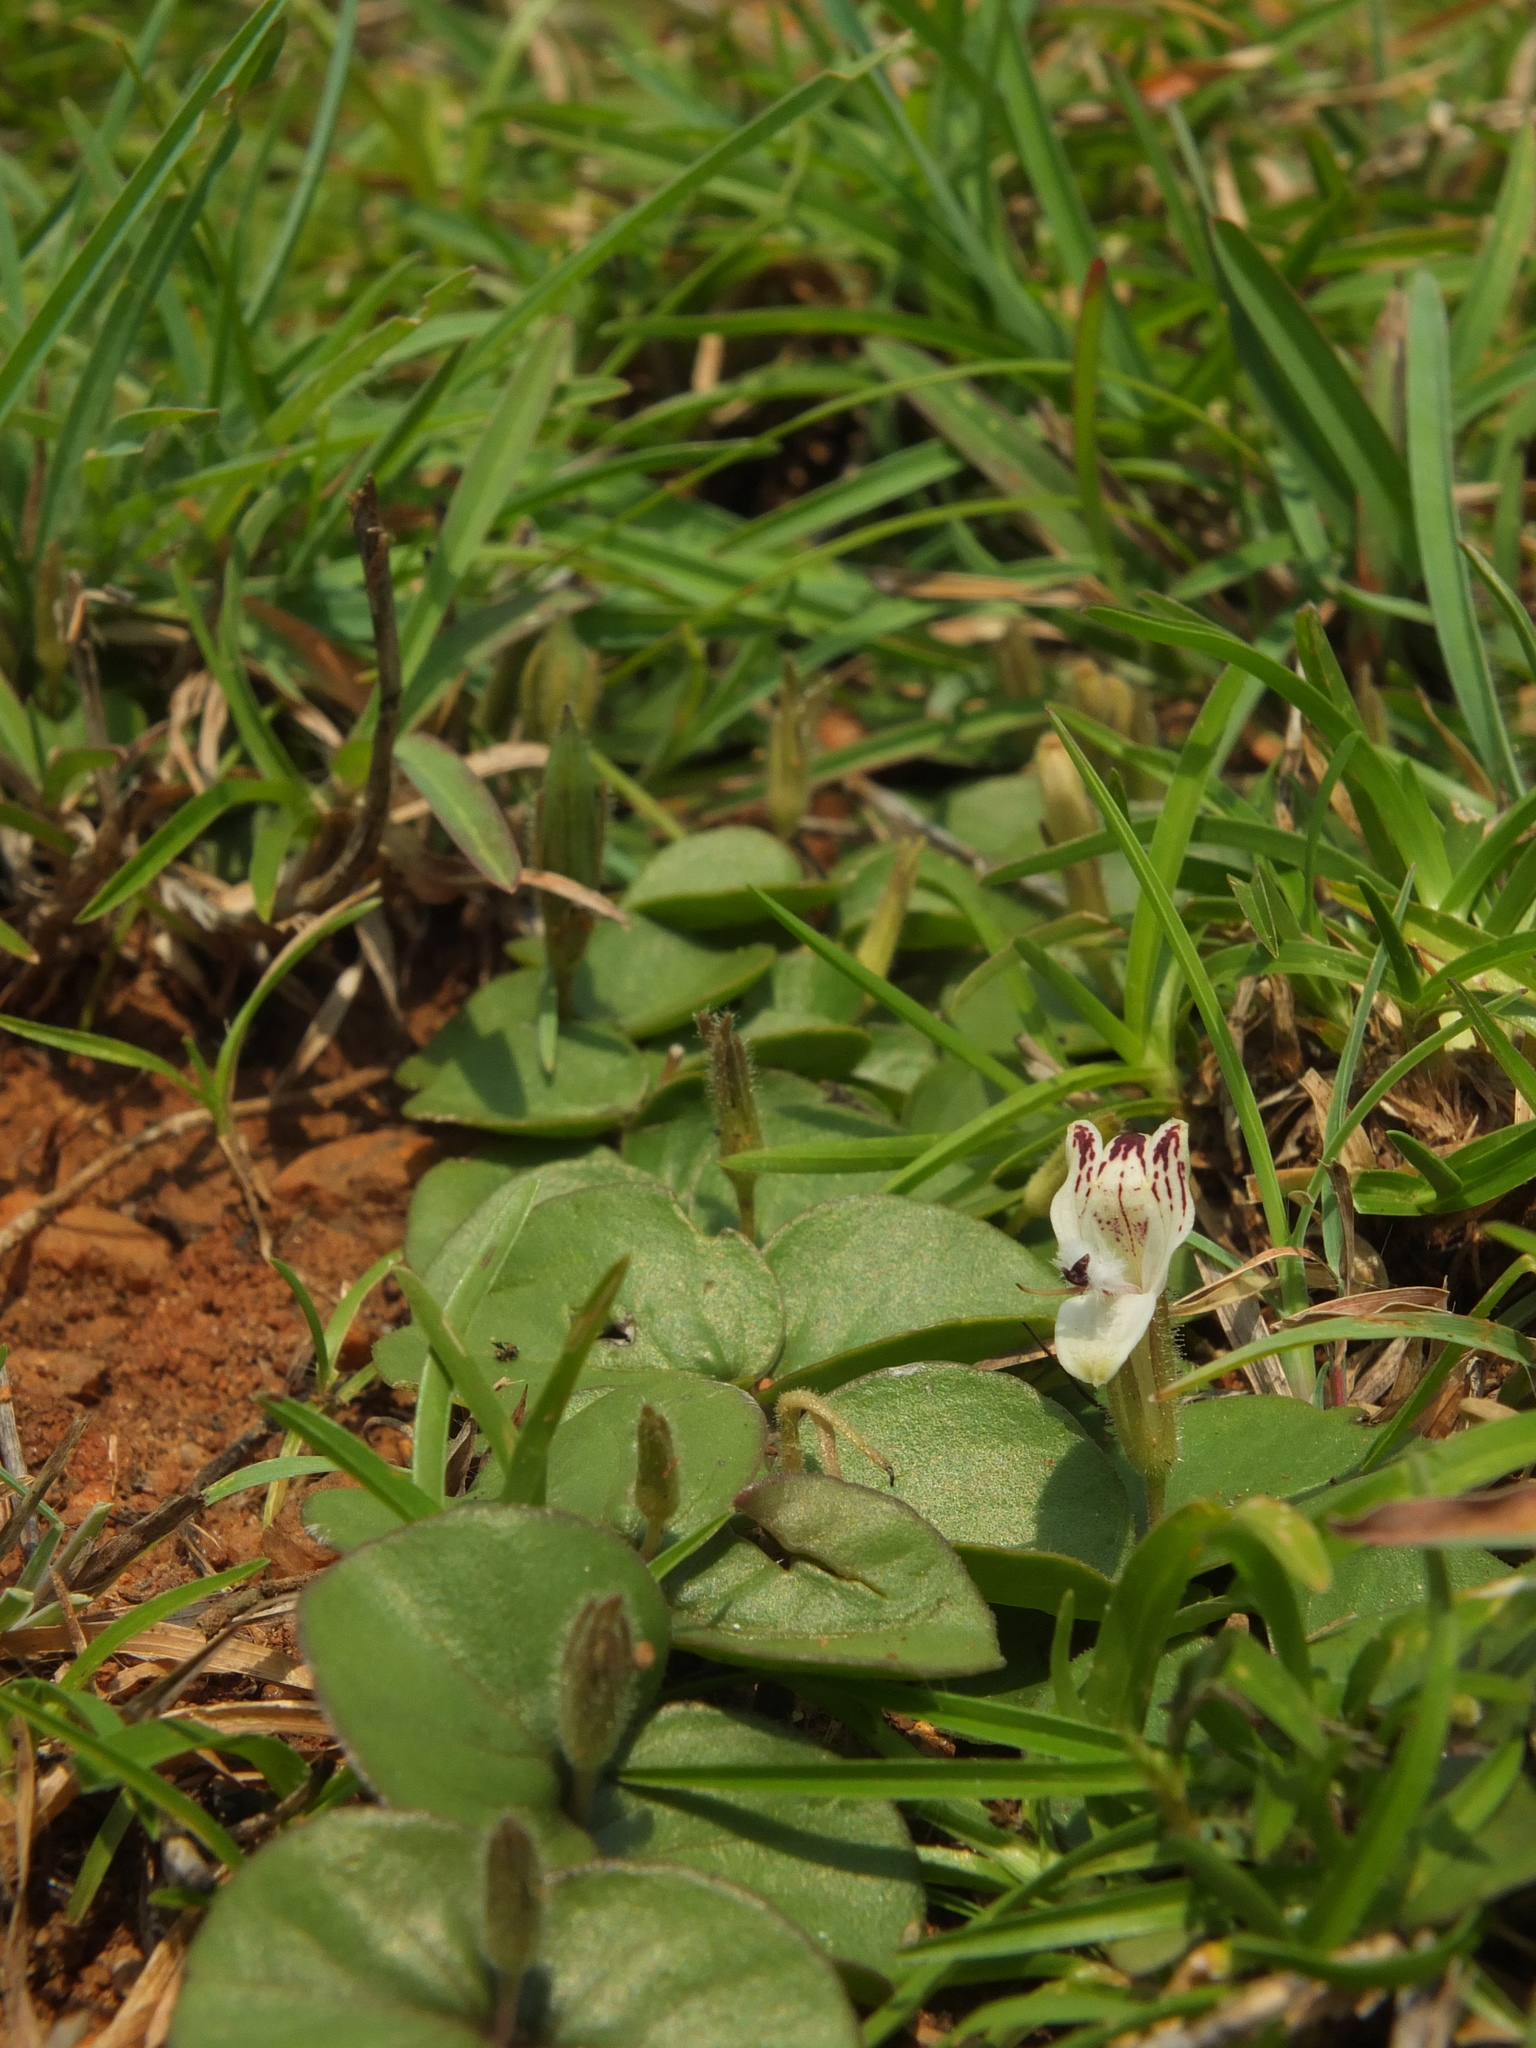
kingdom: Plantae
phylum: Tracheophyta
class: Magnoliopsida
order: Lamiales
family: Acanthaceae
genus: Andrographis
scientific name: Andrographis serpyllifolia
